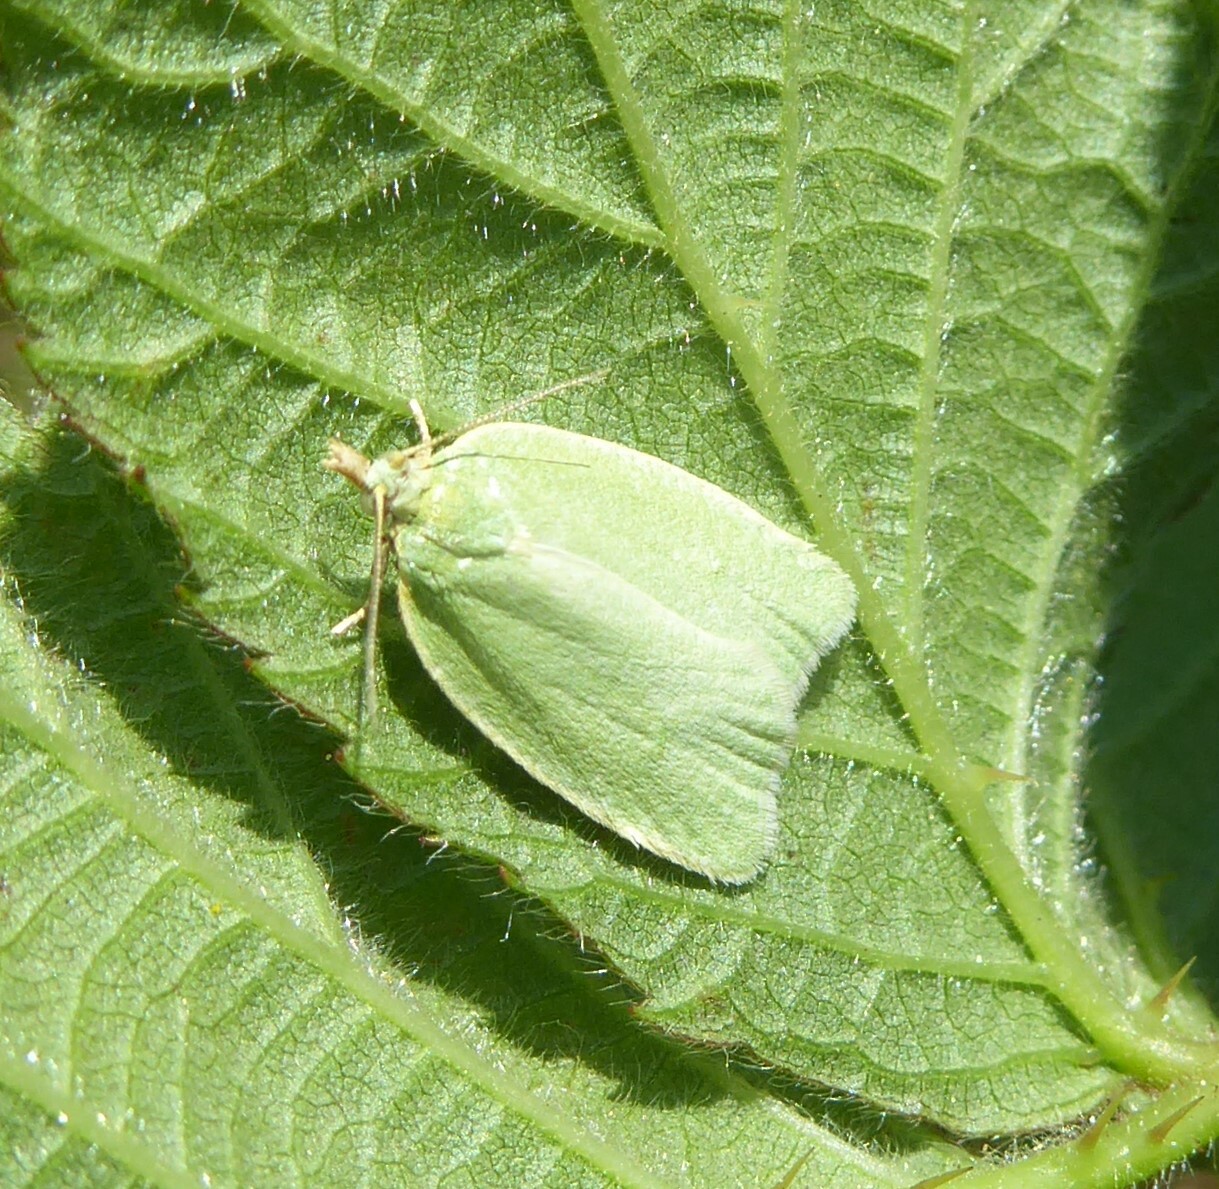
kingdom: Animalia
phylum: Arthropoda
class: Insecta
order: Lepidoptera
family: Tortricidae
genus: Tortrix
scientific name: Tortrix viridana
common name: Green oak tortrix
